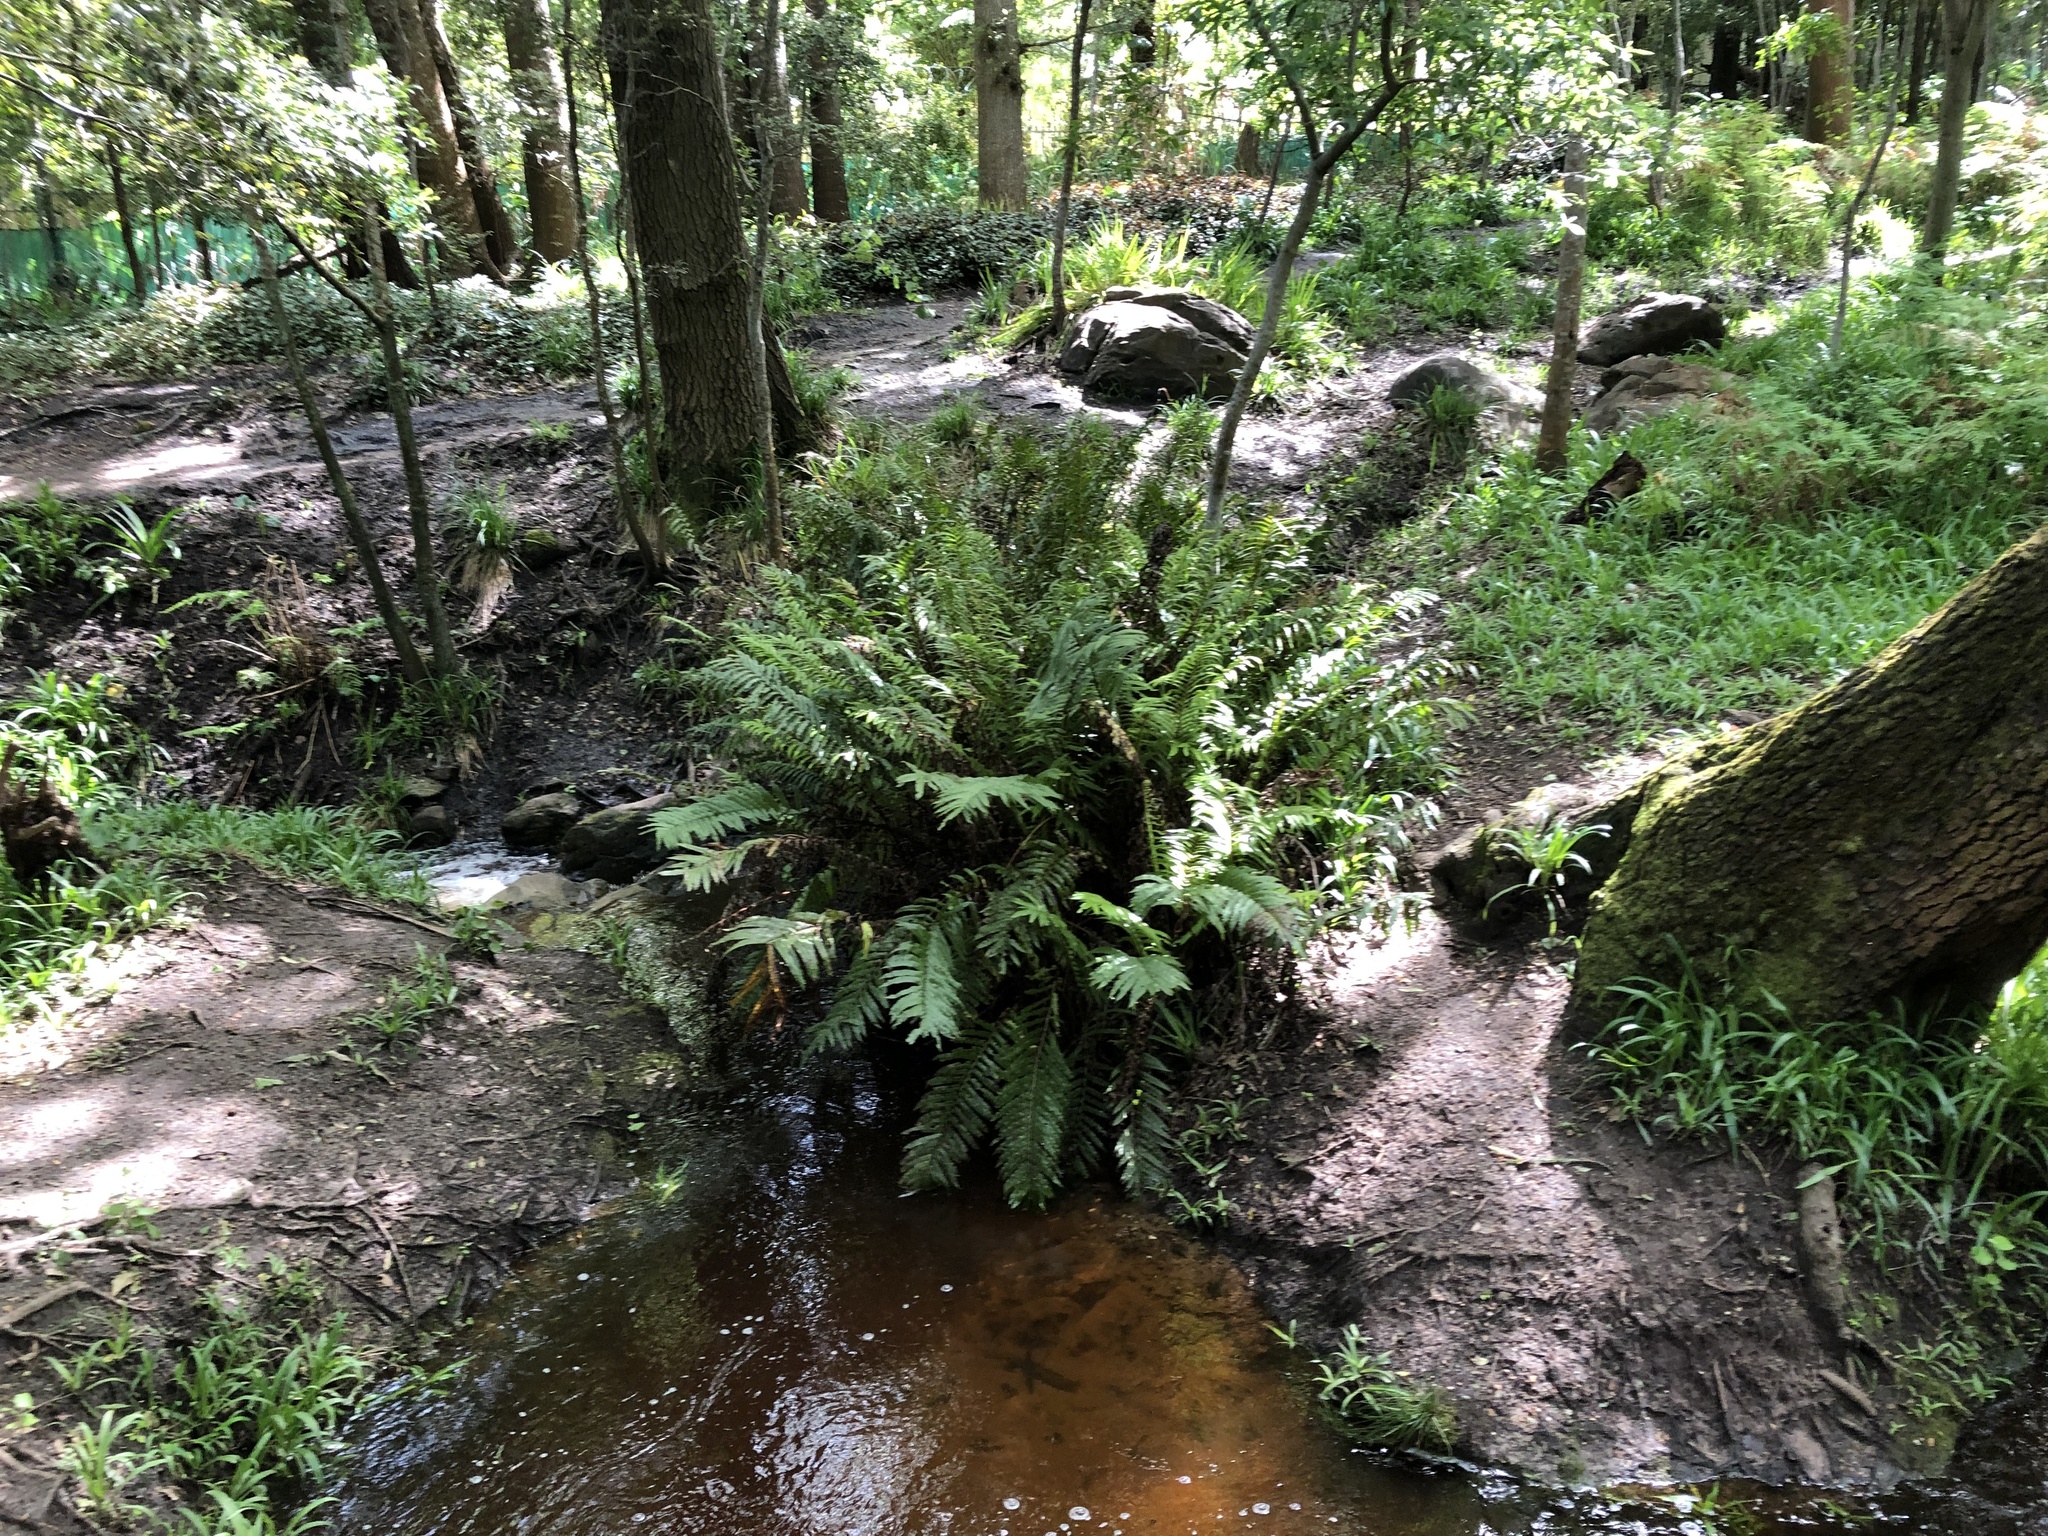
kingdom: Plantae
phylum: Tracheophyta
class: Polypodiopsida
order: Polypodiales
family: Blechnaceae
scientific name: Blechnaceae
